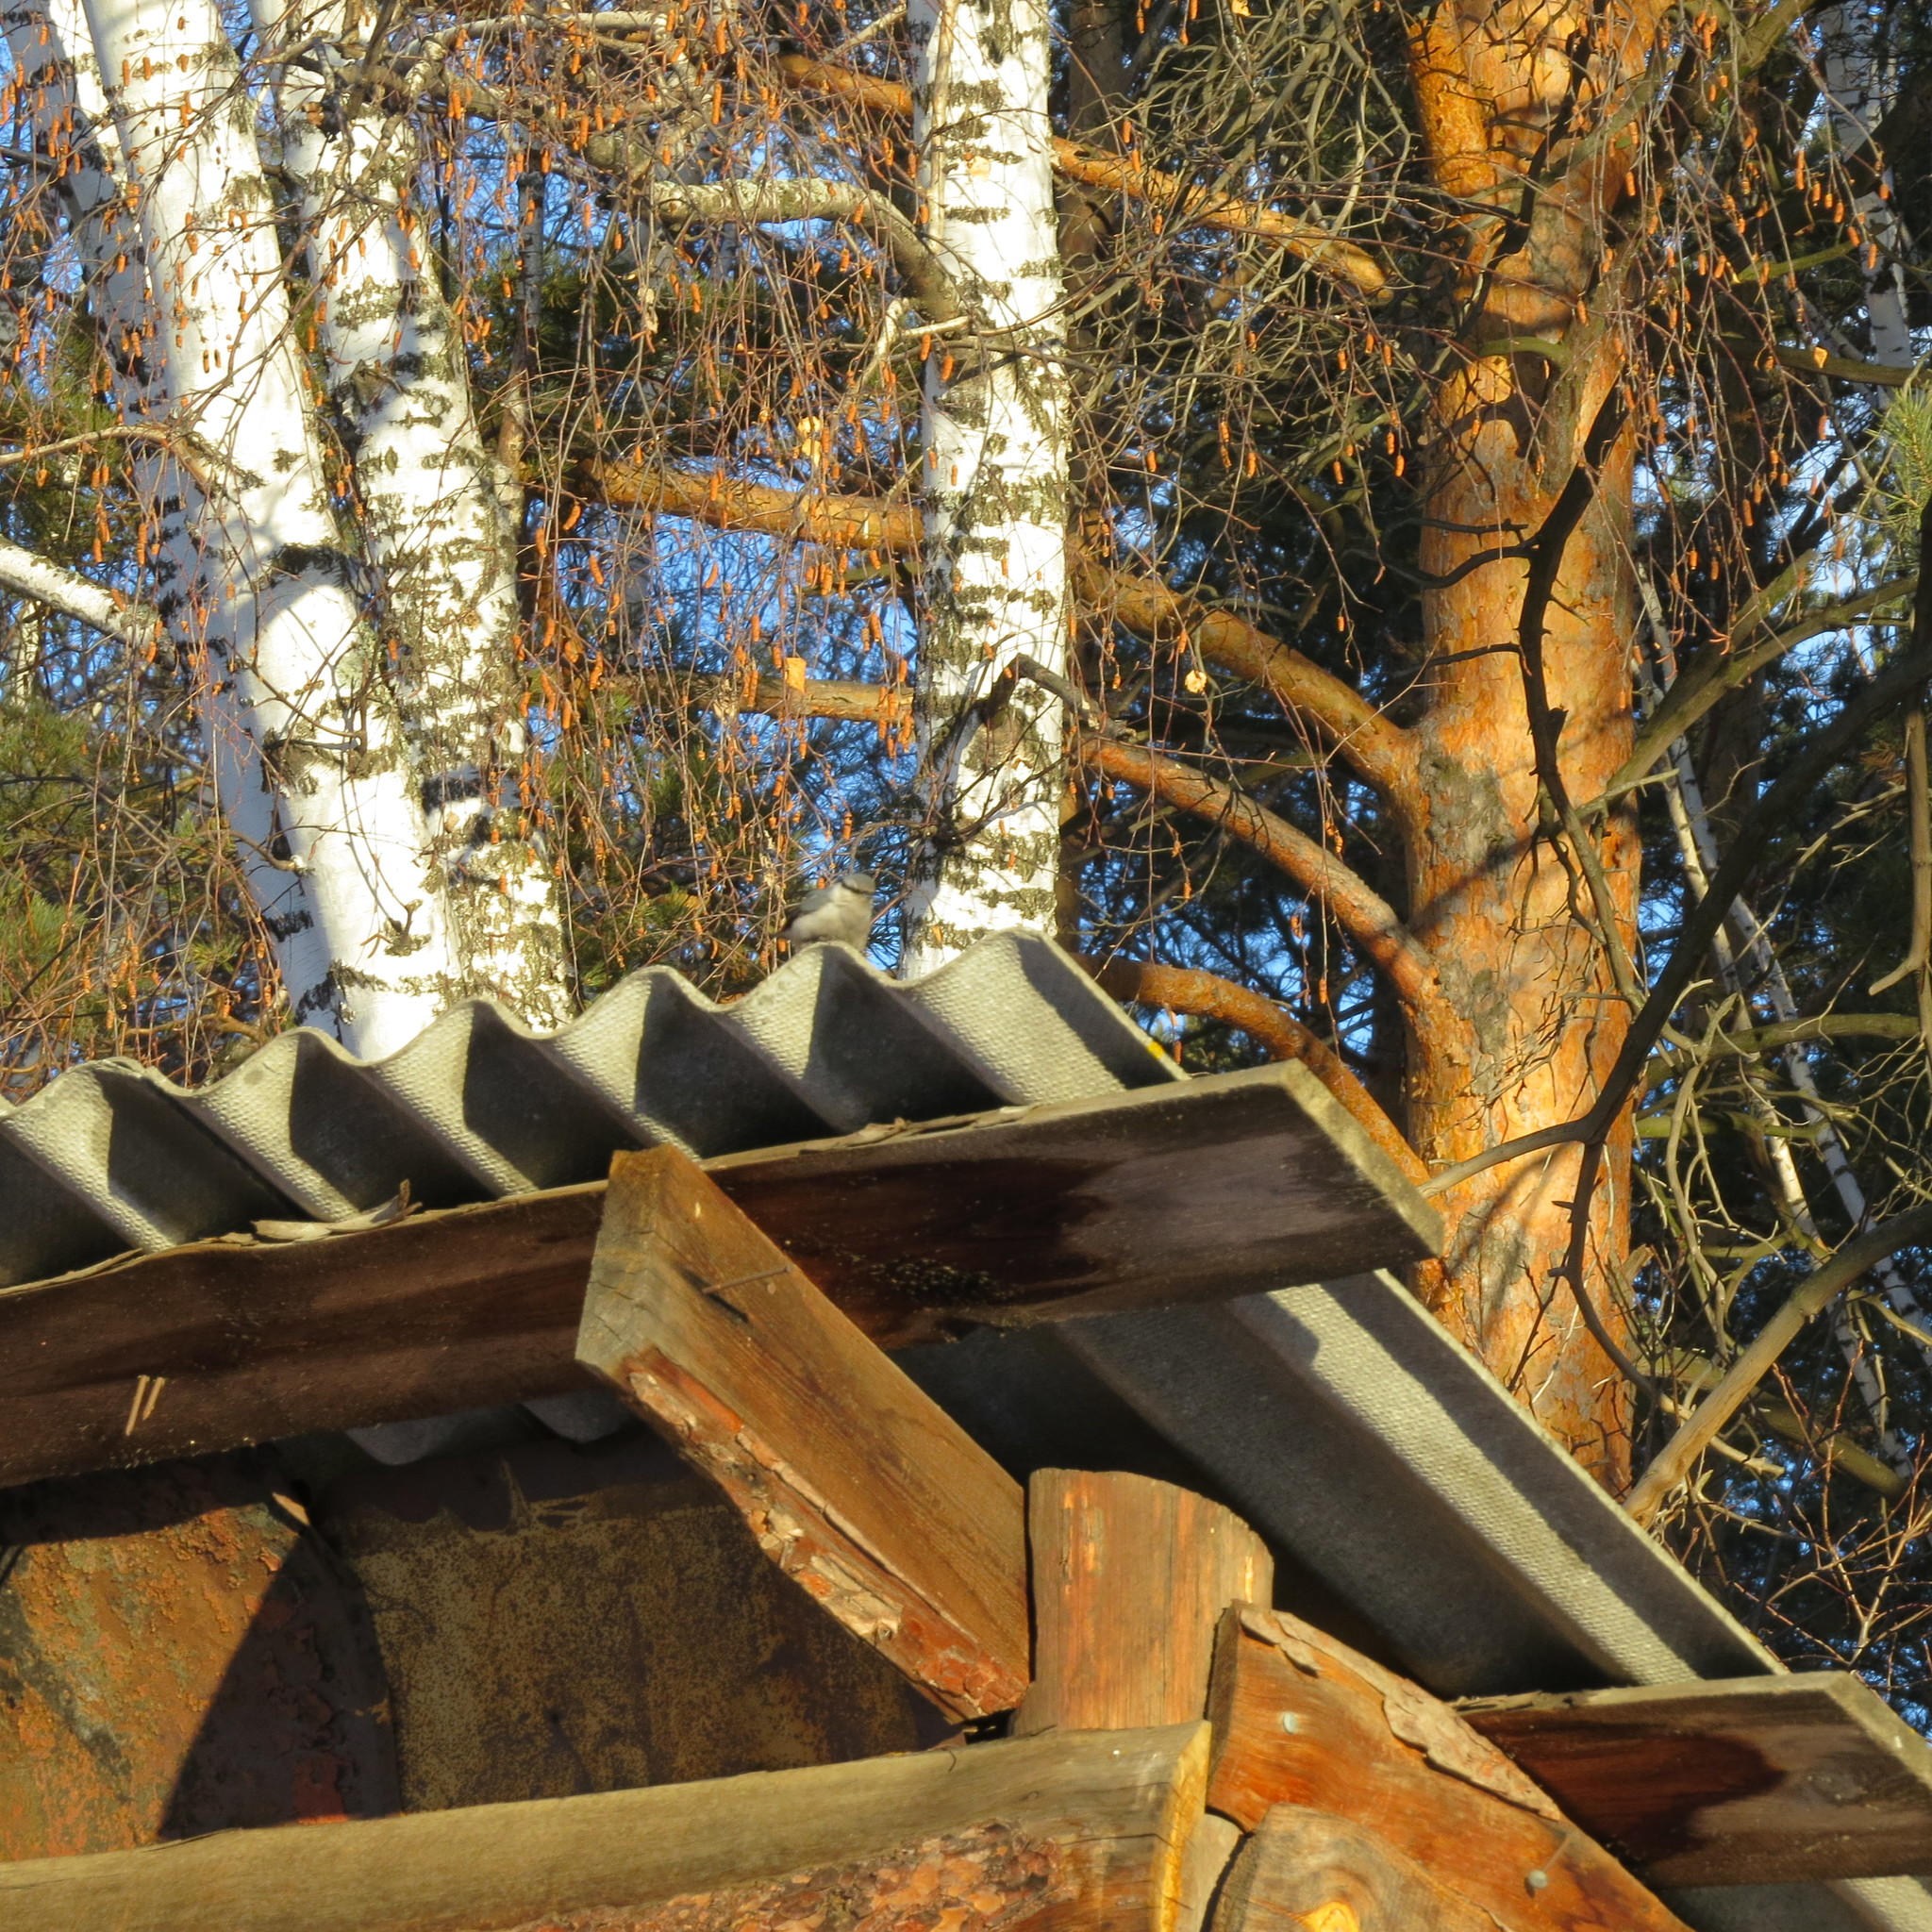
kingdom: Animalia
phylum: Chordata
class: Aves
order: Passeriformes
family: Sittidae
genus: Sitta
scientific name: Sitta europaea
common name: Eurasian nuthatch
